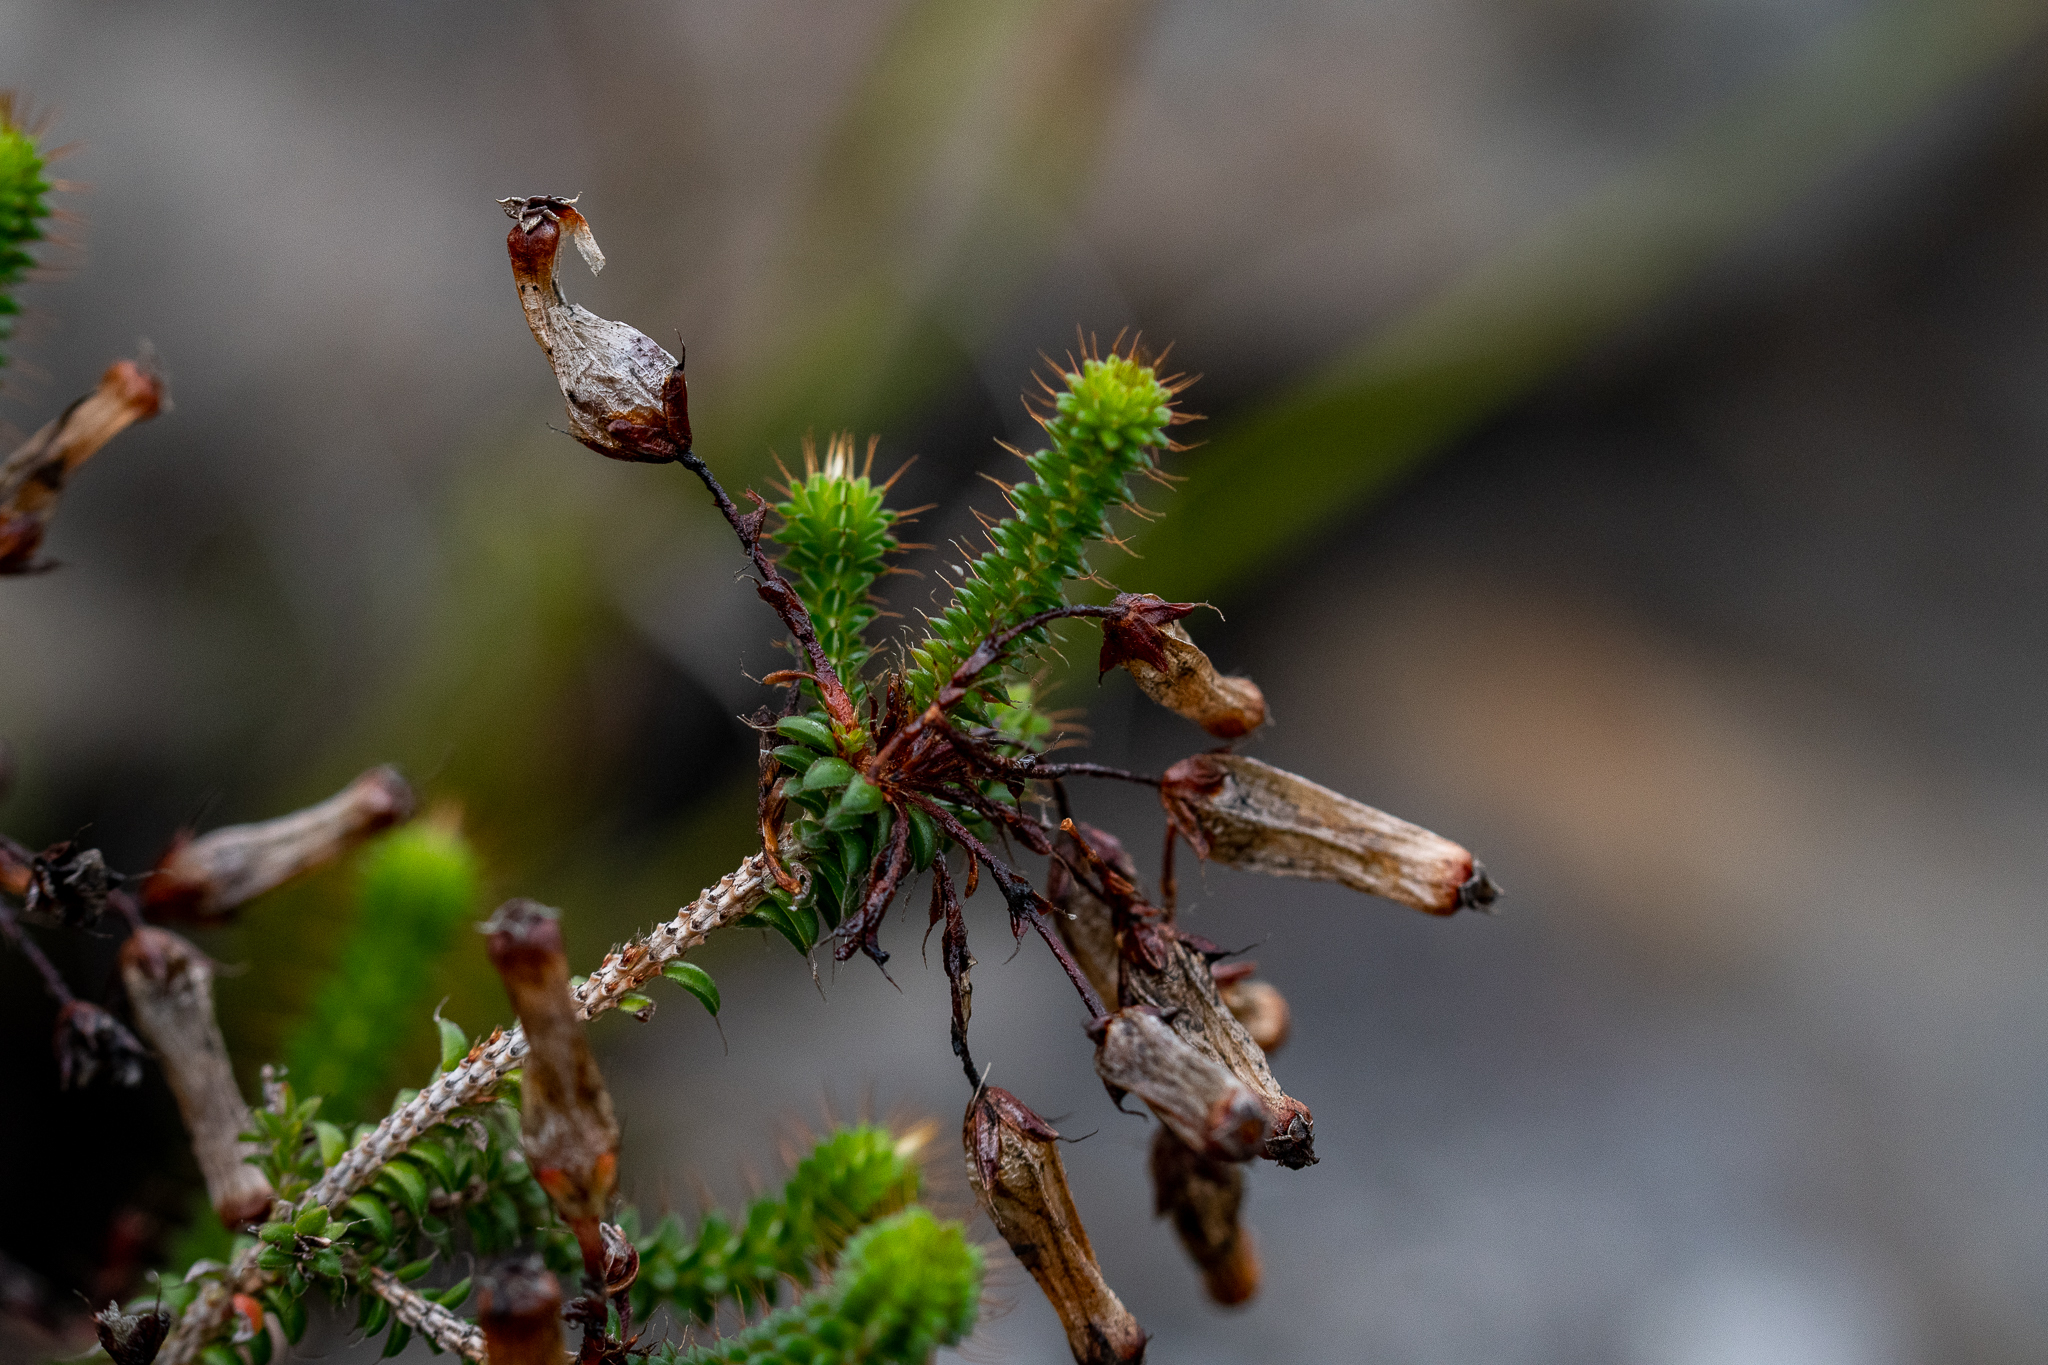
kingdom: Plantae
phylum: Tracheophyta
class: Magnoliopsida
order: Ericales
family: Ericaceae
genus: Erica
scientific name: Erica retorta
